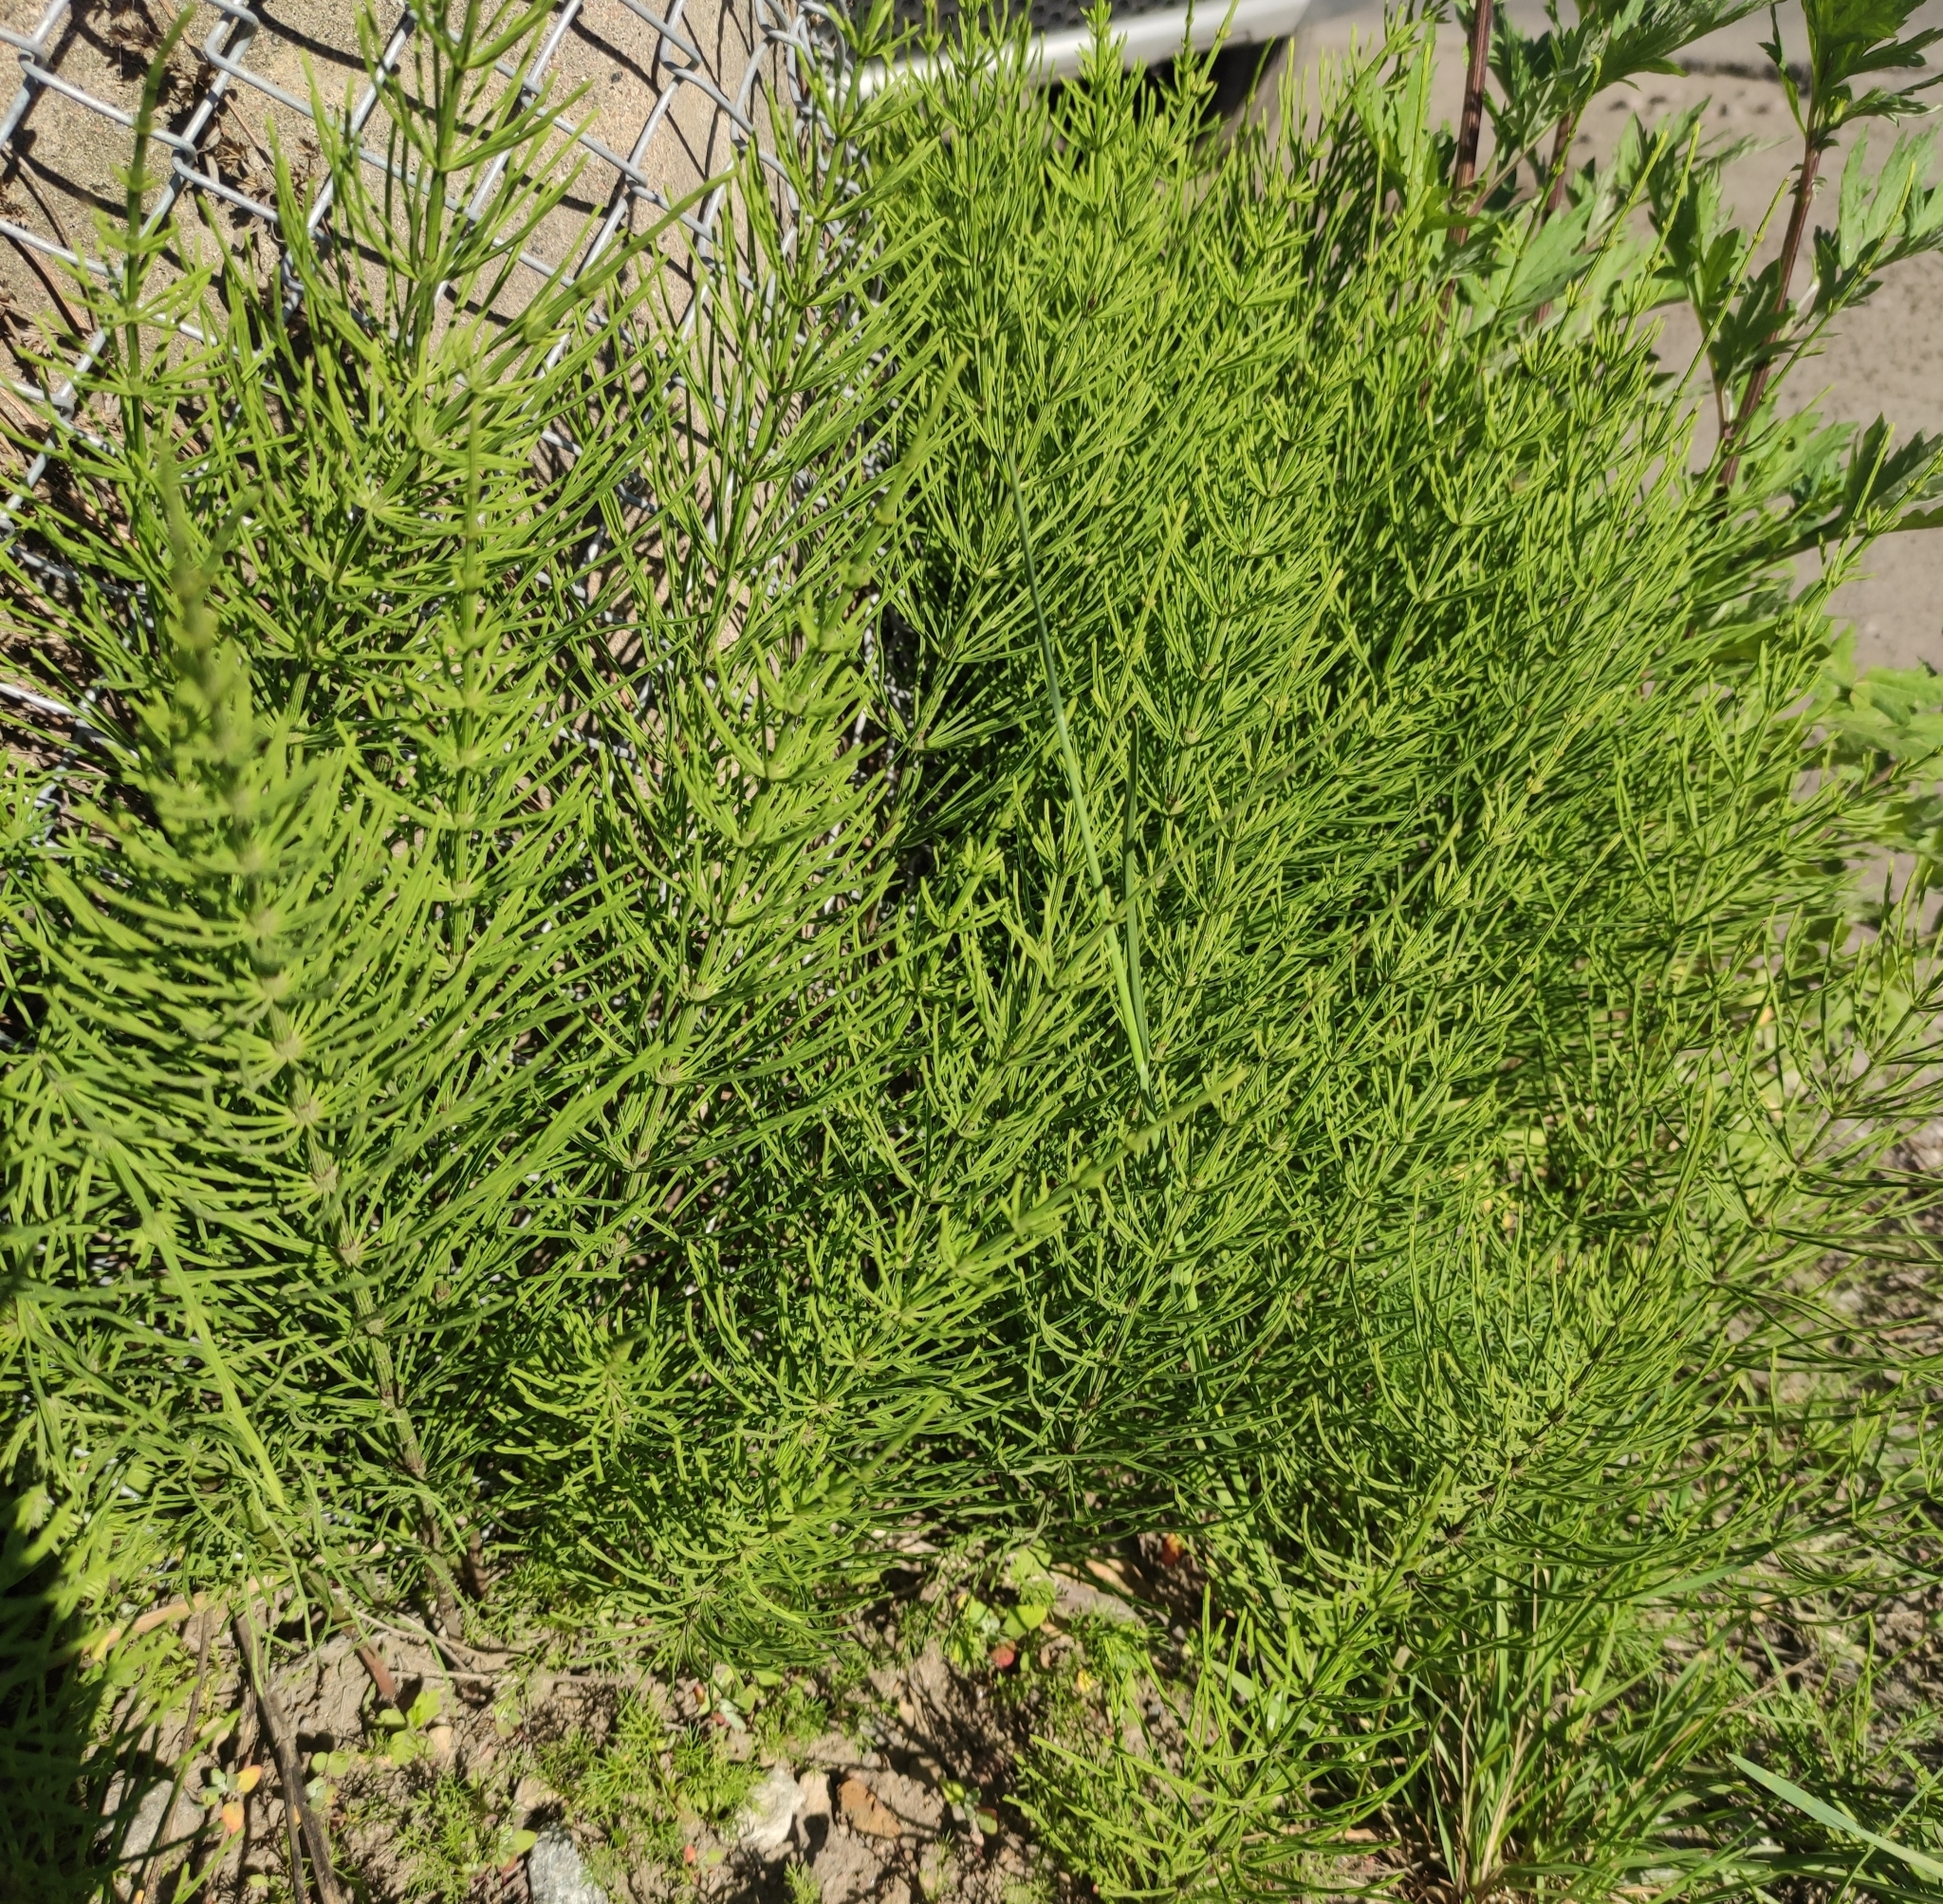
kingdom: Plantae
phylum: Tracheophyta
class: Polypodiopsida
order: Equisetales
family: Equisetaceae
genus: Equisetum
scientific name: Equisetum arvense
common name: Field horsetail
